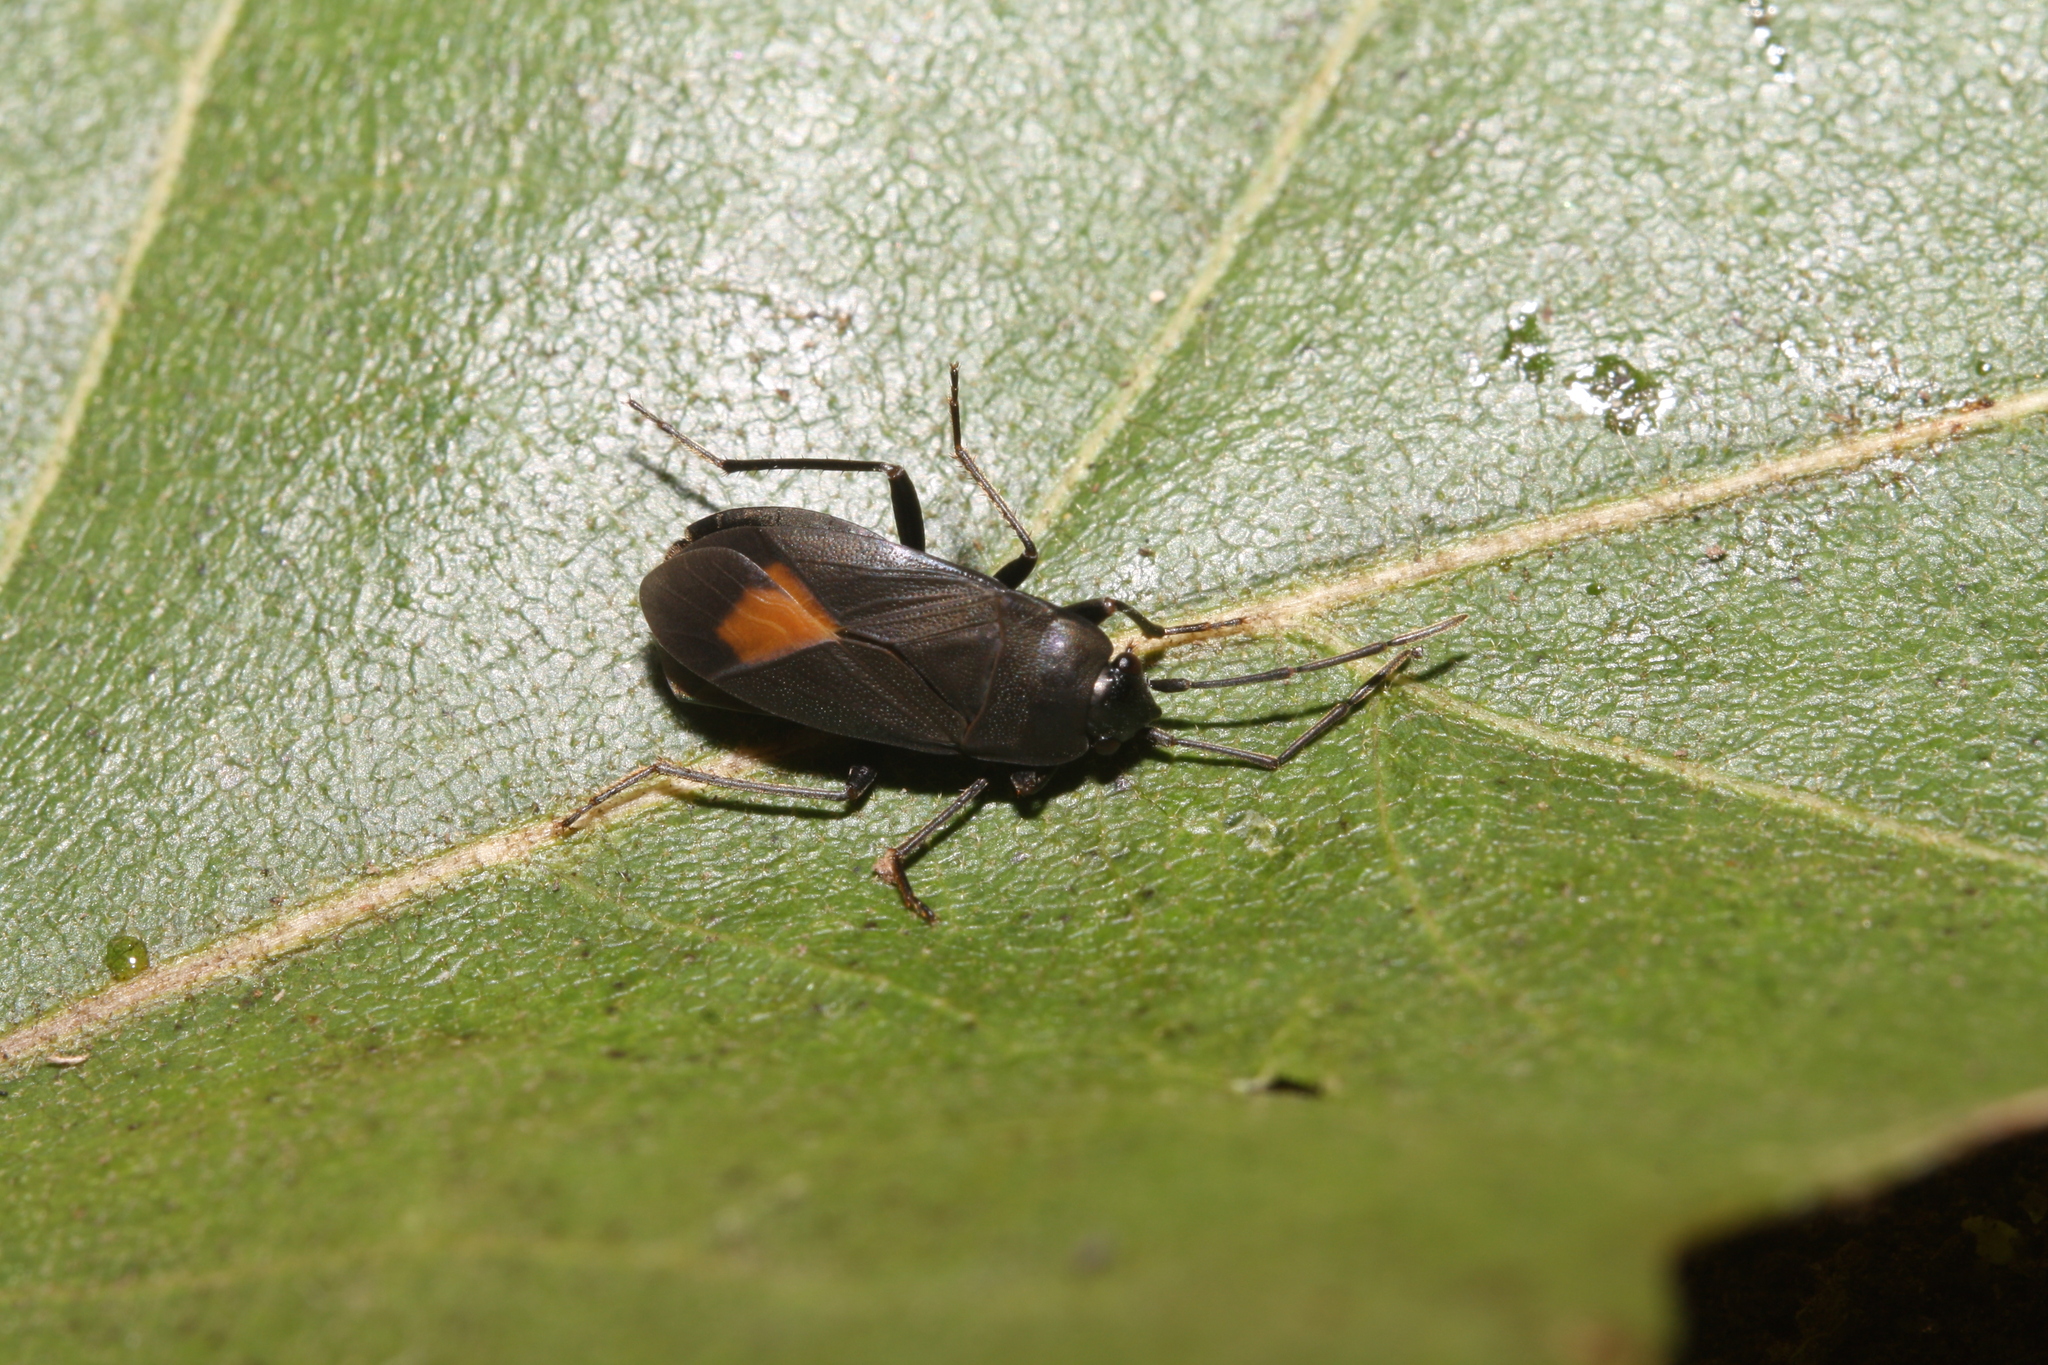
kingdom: Animalia
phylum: Arthropoda
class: Insecta
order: Hemiptera
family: Rhyparochromidae
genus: Aphanus
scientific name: Aphanus rolandri
